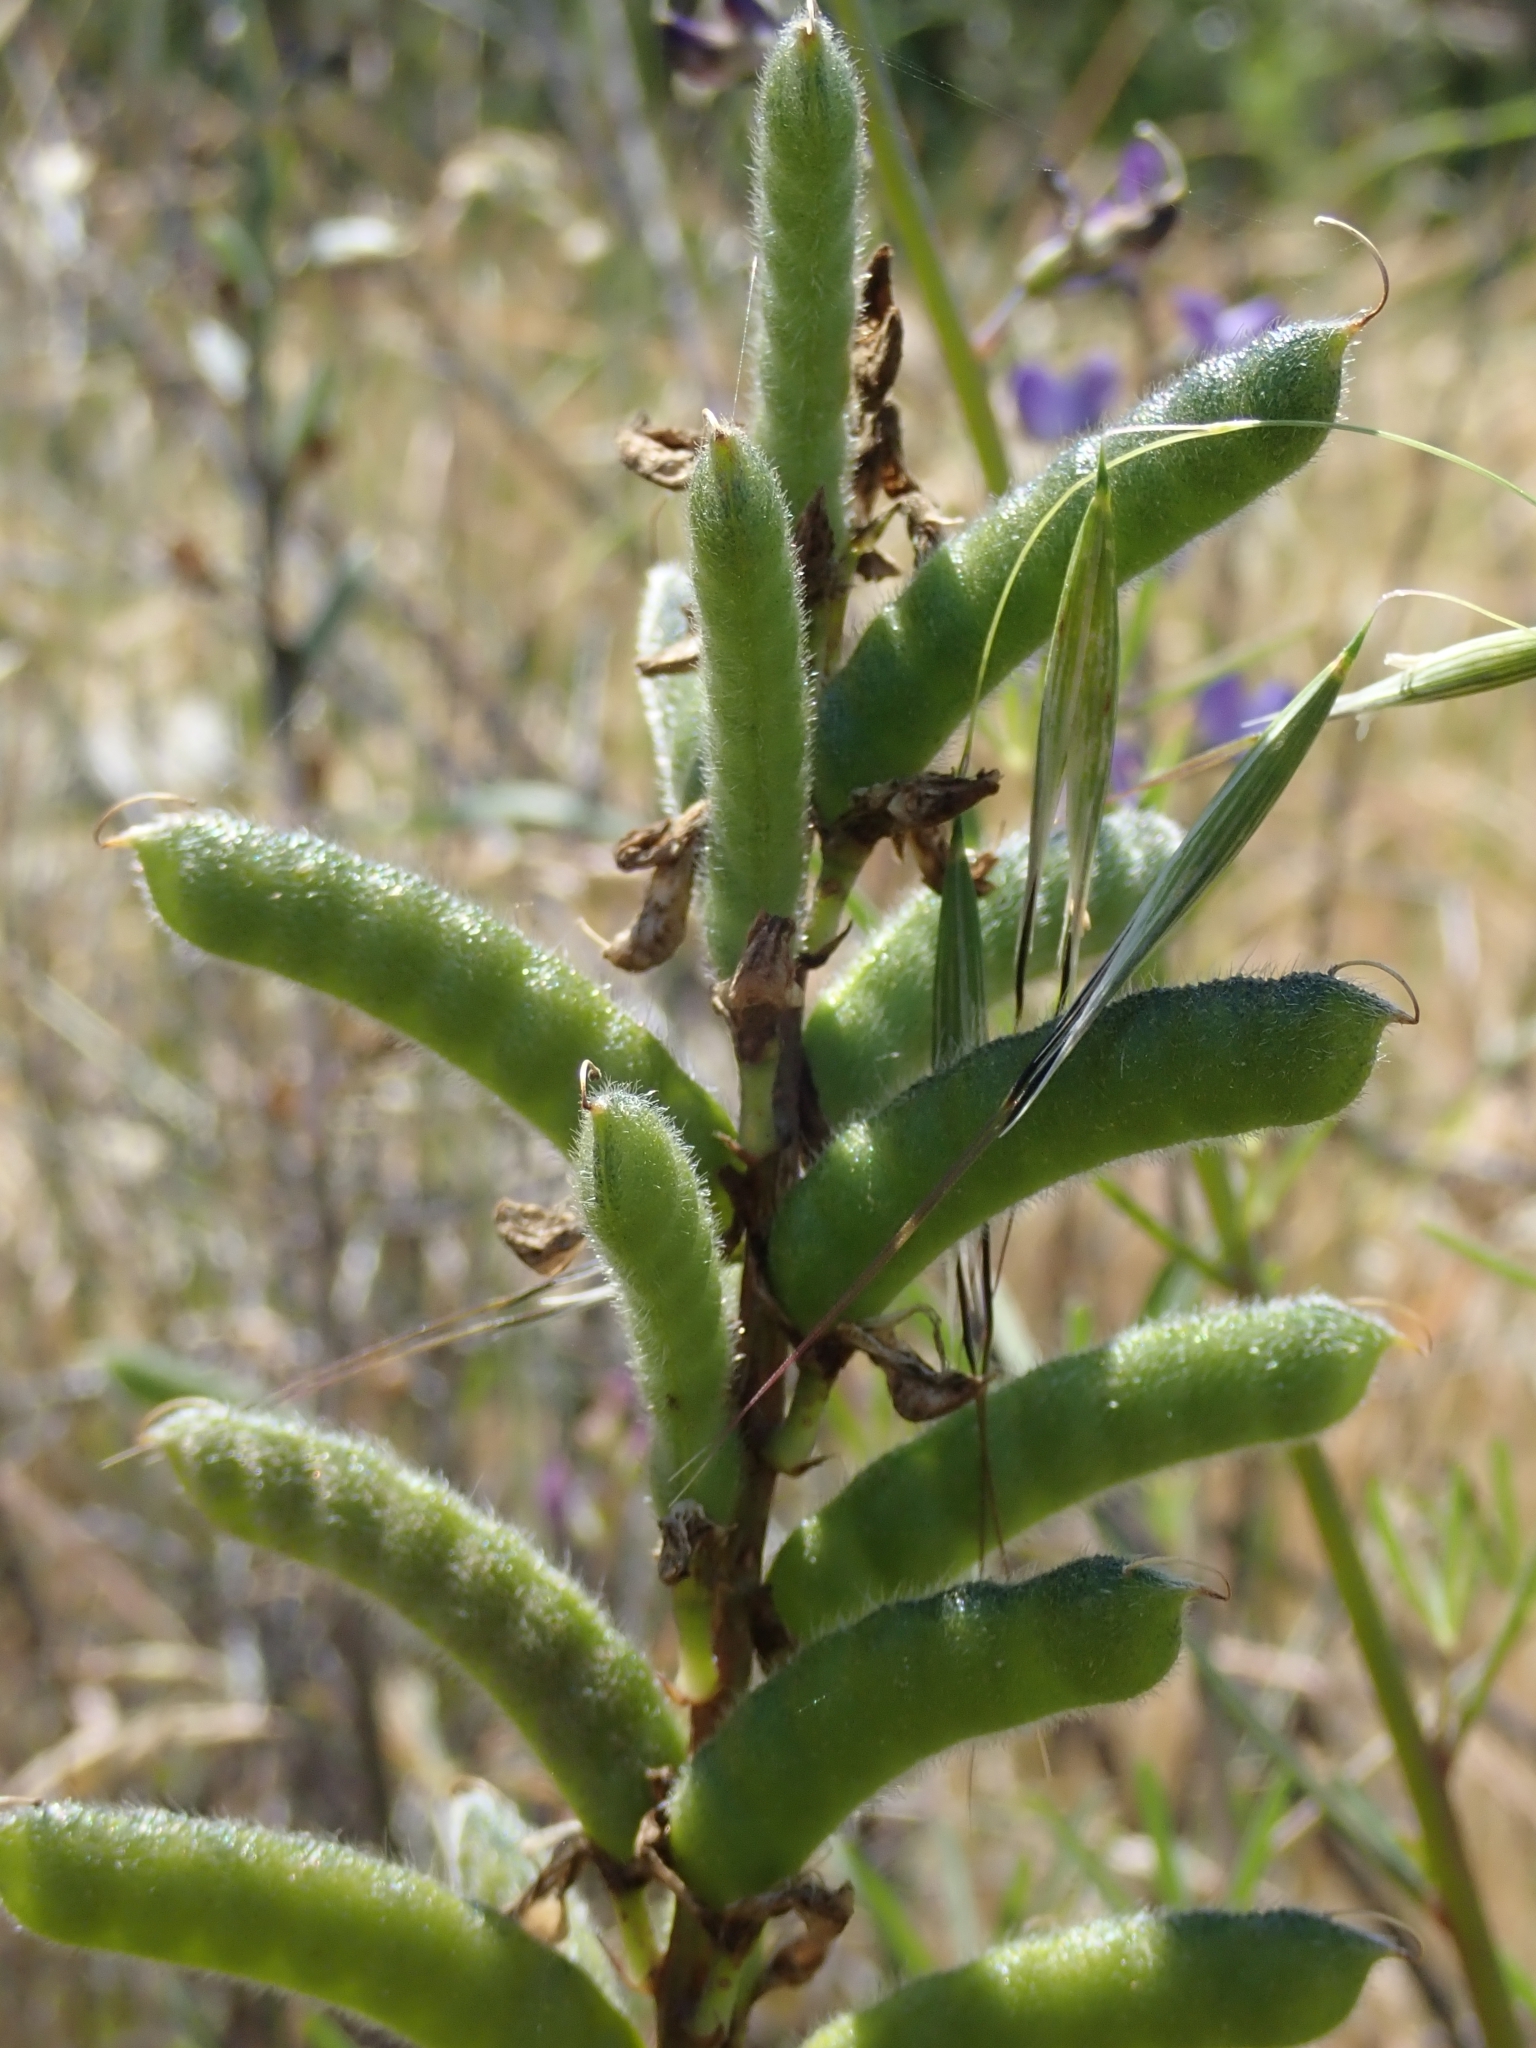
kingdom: Plantae
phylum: Tracheophyta
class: Magnoliopsida
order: Fabales
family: Fabaceae
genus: Lupinus
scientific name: Lupinus truncatus
